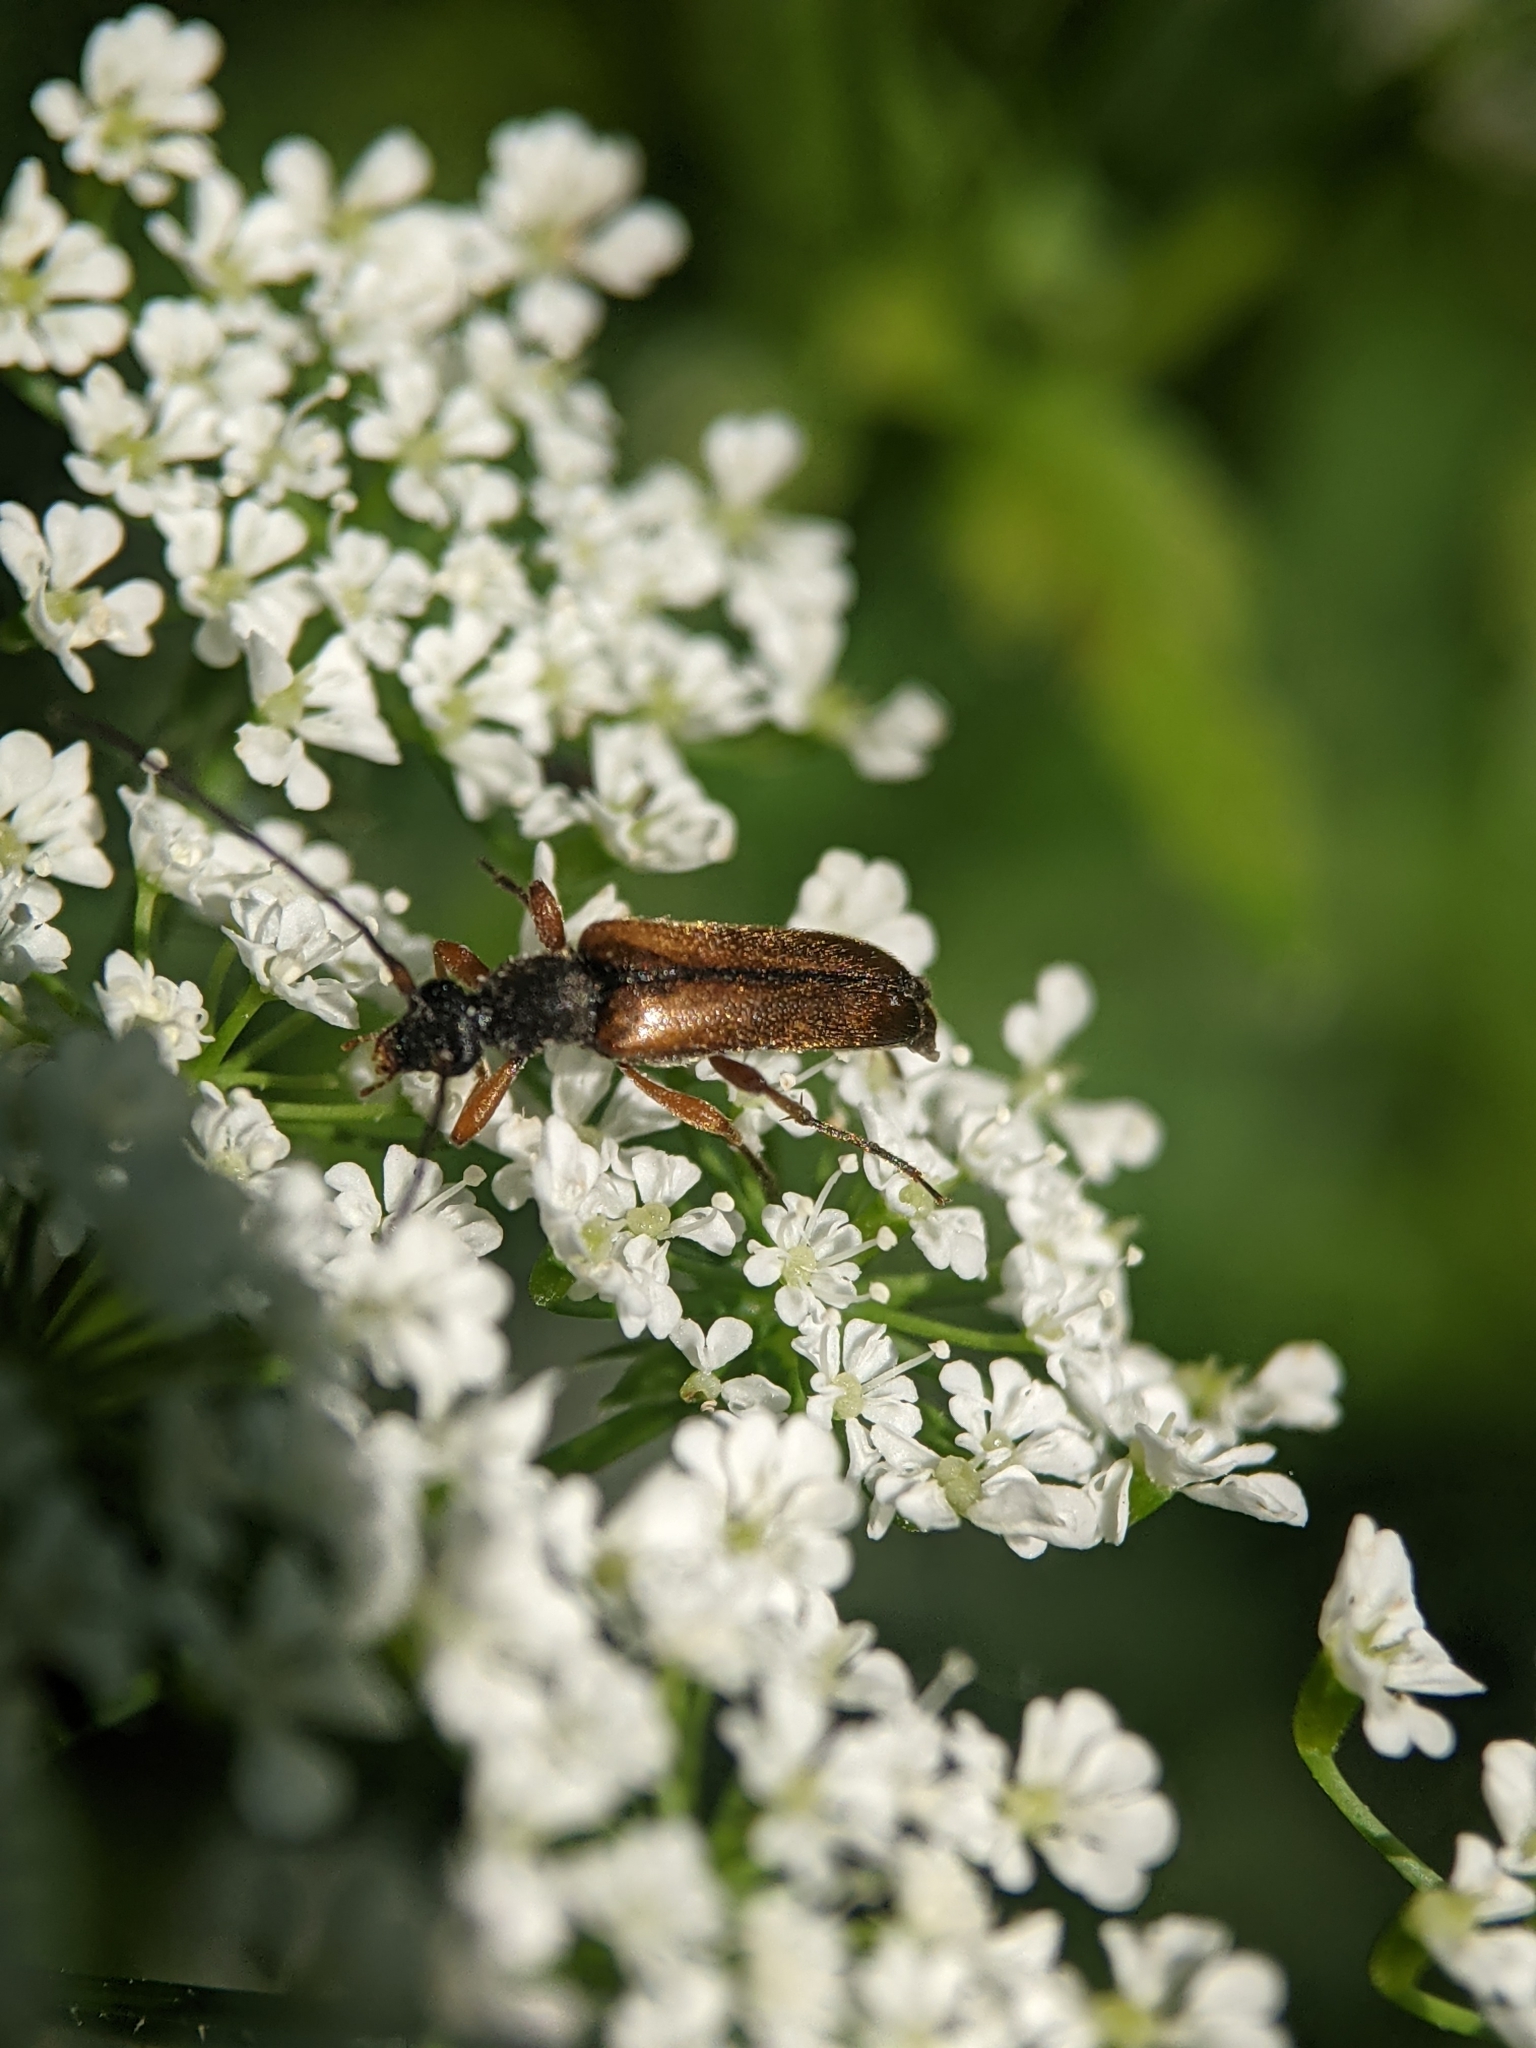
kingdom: Animalia
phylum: Arthropoda
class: Insecta
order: Coleoptera
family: Cerambycidae
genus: Alosterna
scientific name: Alosterna tabacicolor
